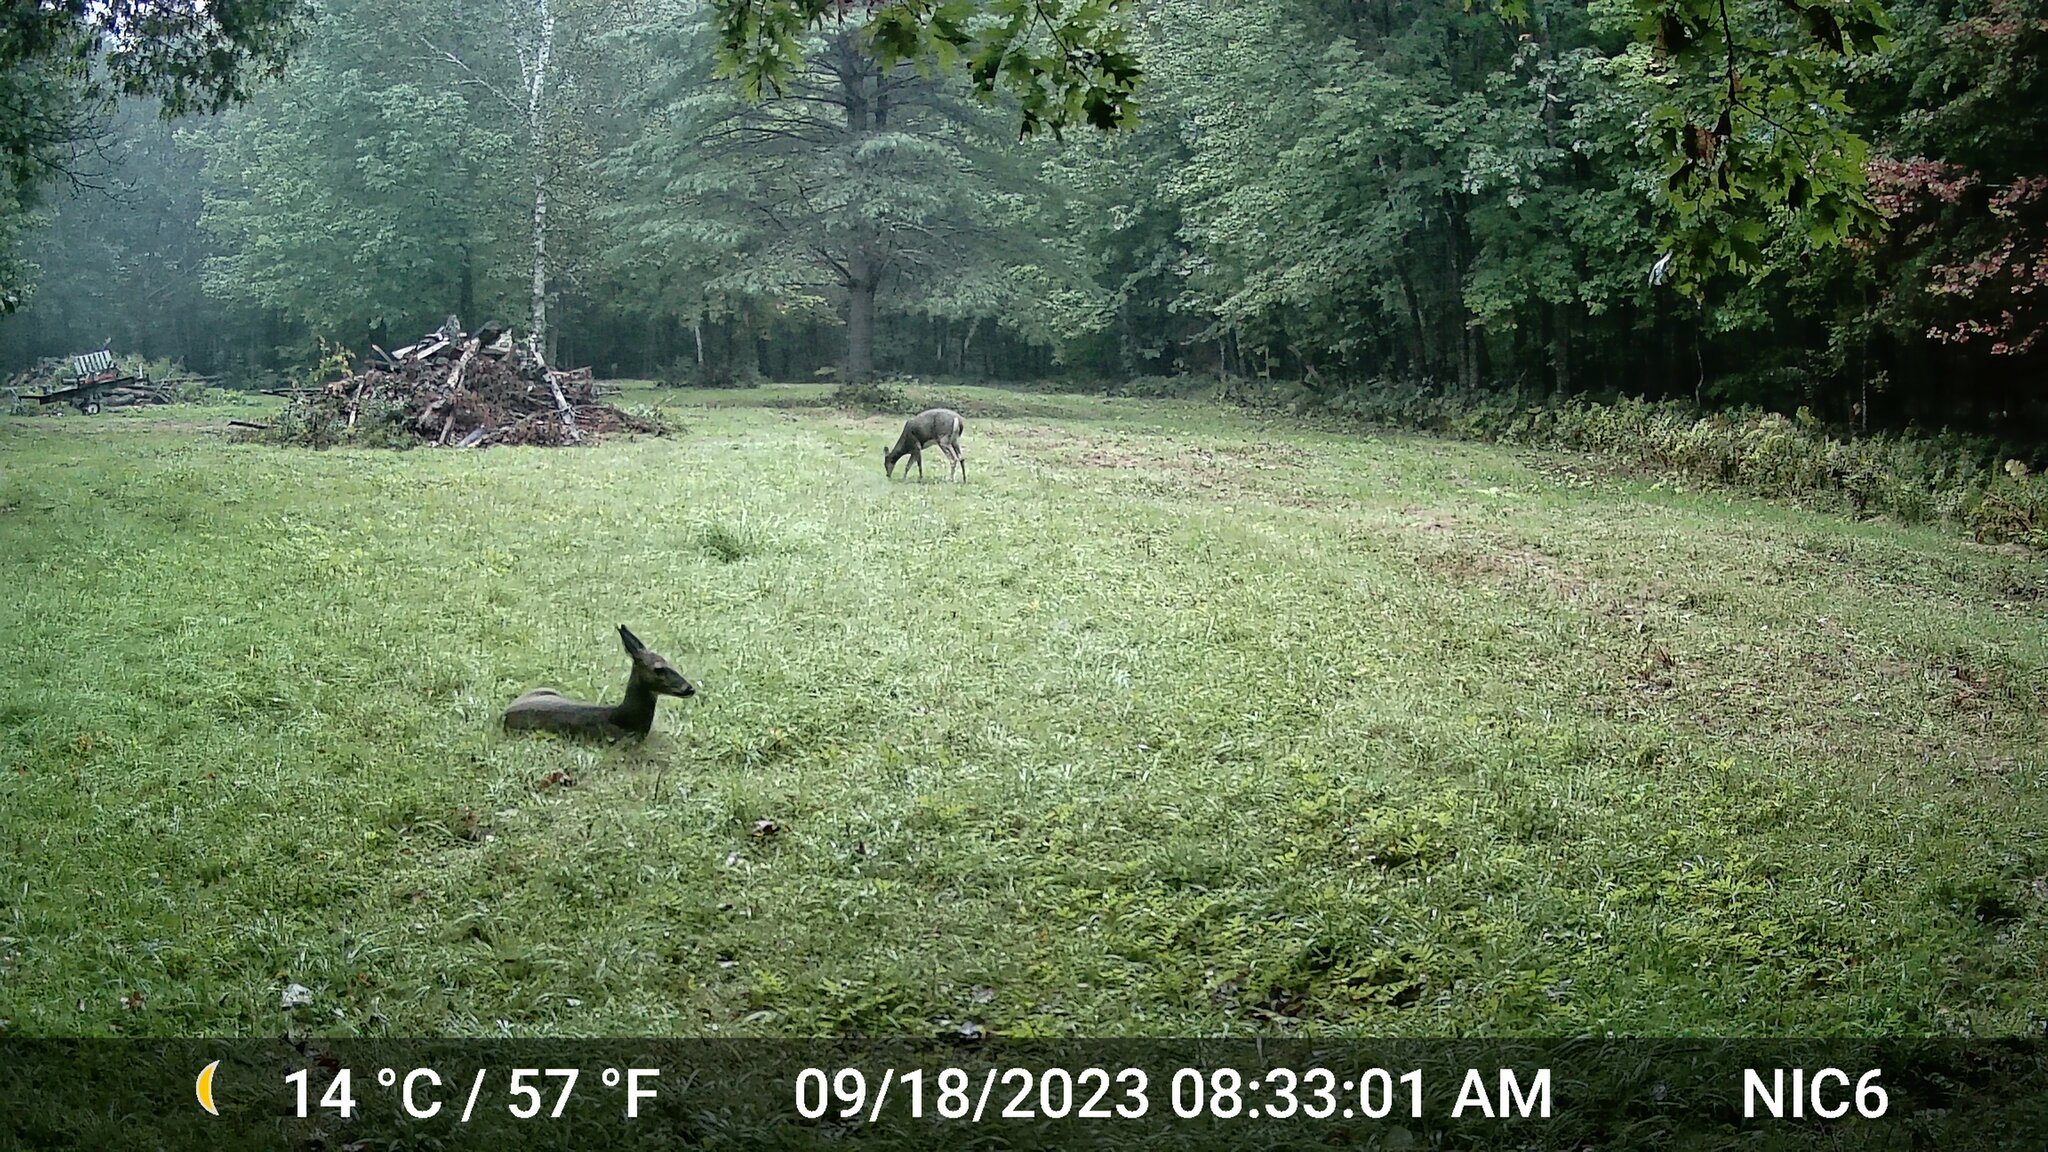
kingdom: Animalia
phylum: Chordata
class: Mammalia
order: Artiodactyla
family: Cervidae
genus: Odocoileus
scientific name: Odocoileus virginianus
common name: White-tailed deer
